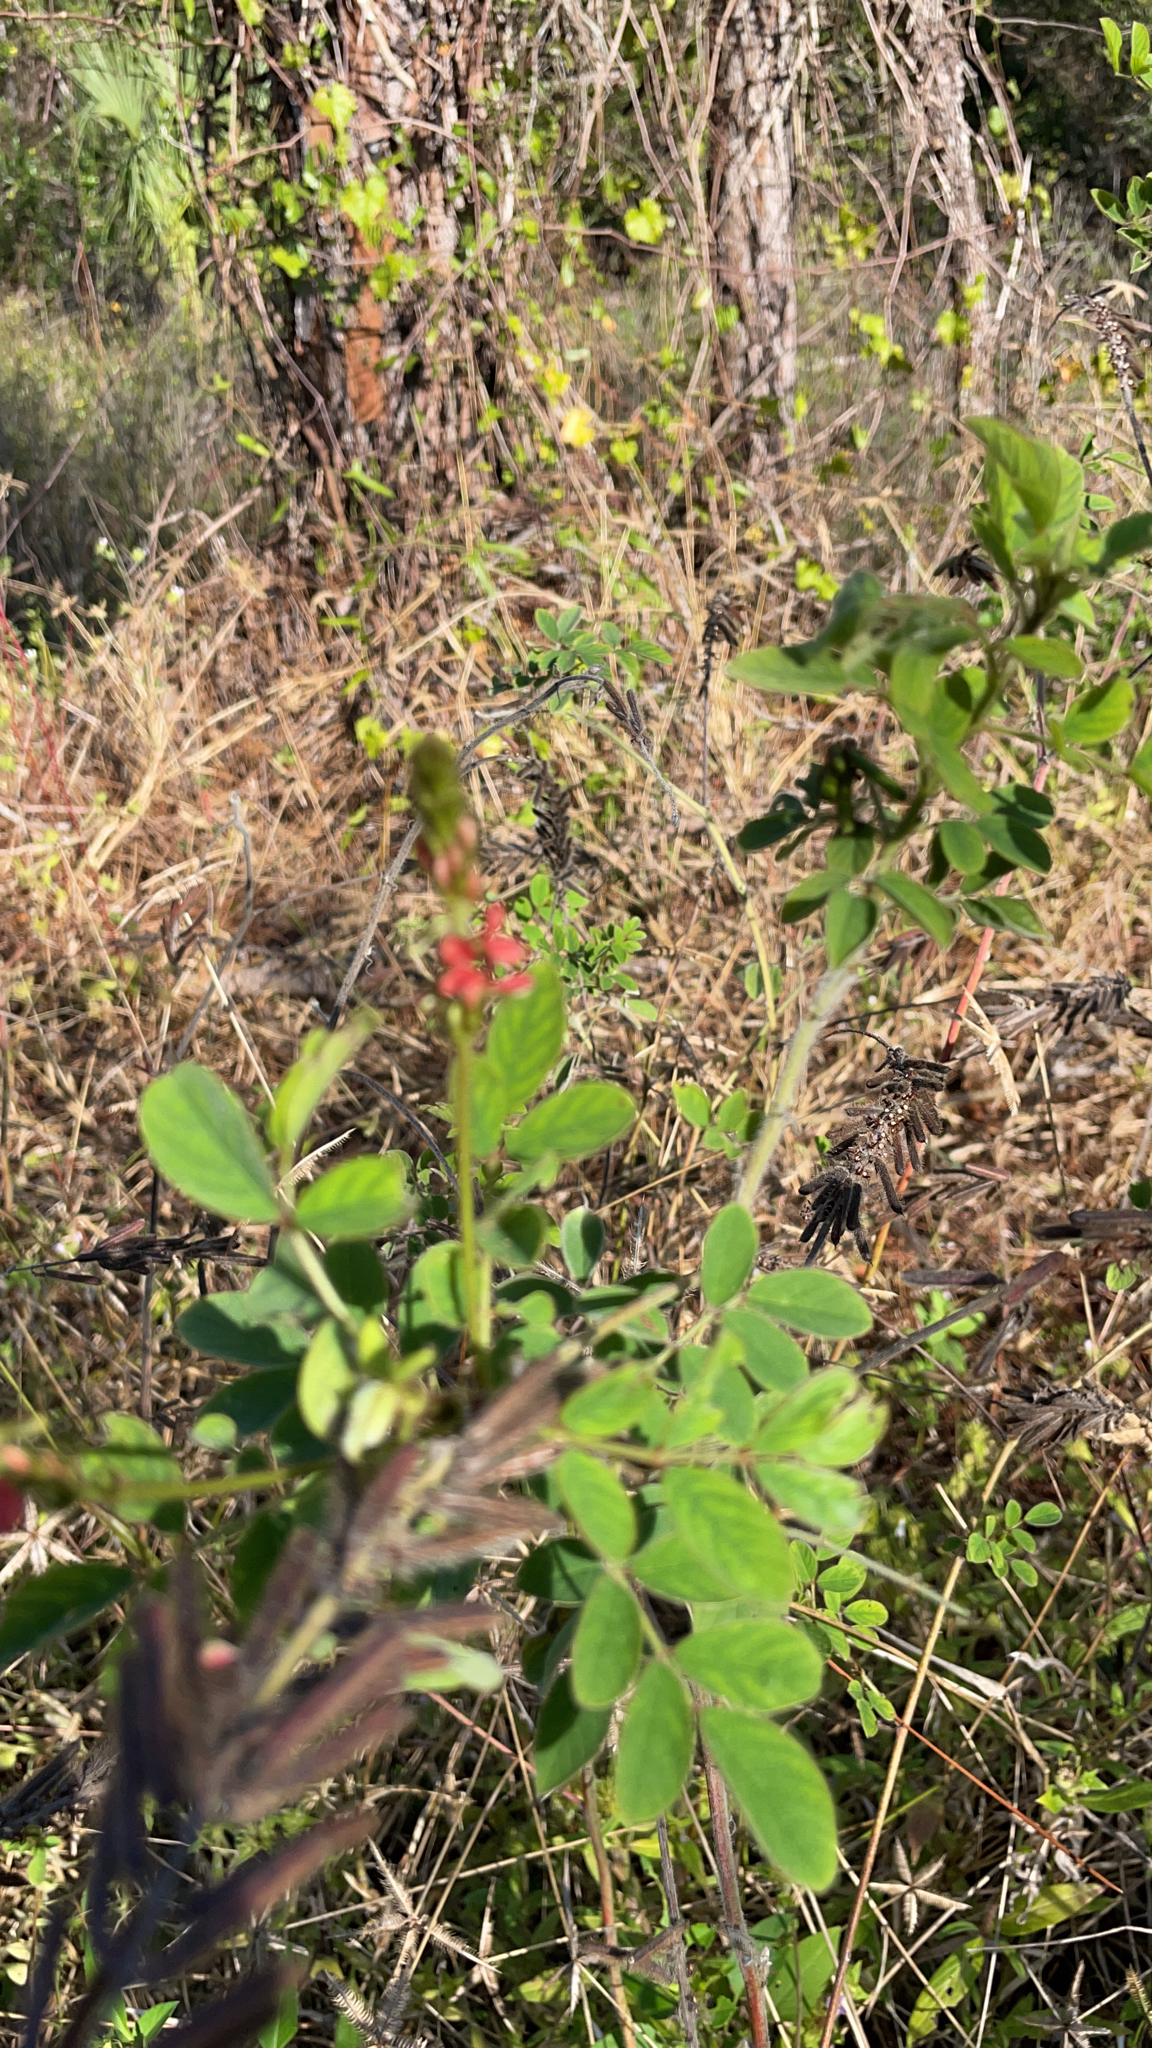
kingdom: Plantae
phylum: Tracheophyta
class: Magnoliopsida
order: Fabales
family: Fabaceae
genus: Indigofera
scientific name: Indigofera hirsuta
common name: Hairy indigo
